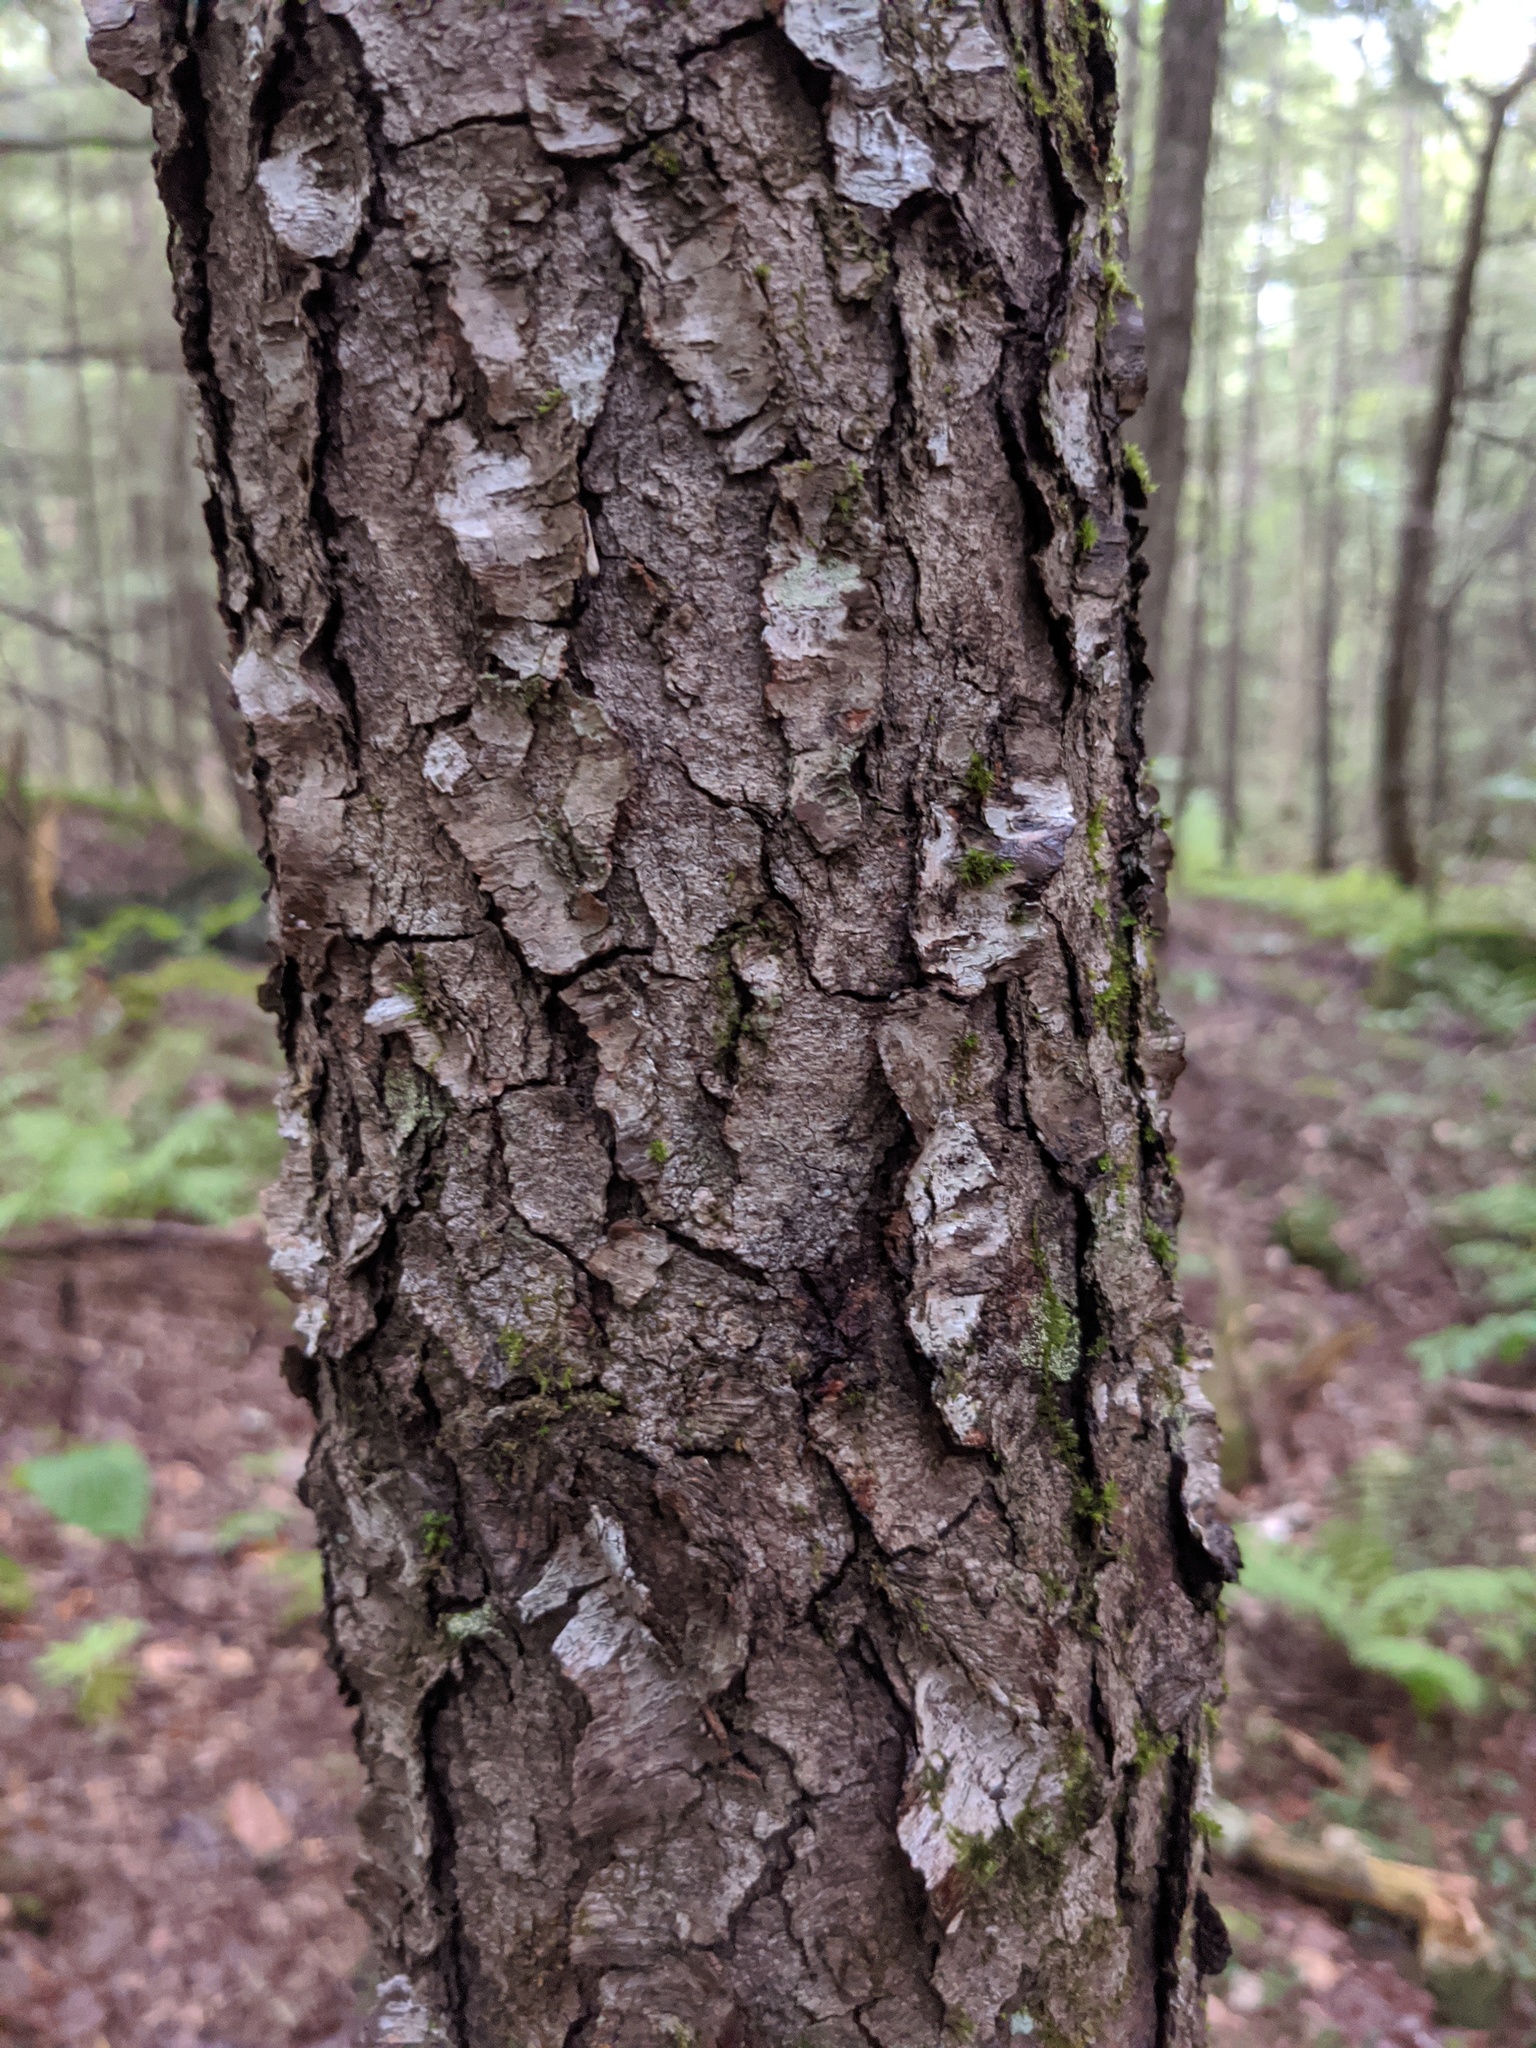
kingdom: Plantae
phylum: Tracheophyta
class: Magnoliopsida
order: Rosales
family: Rosaceae
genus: Prunus
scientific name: Prunus serotina
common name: Black cherry
